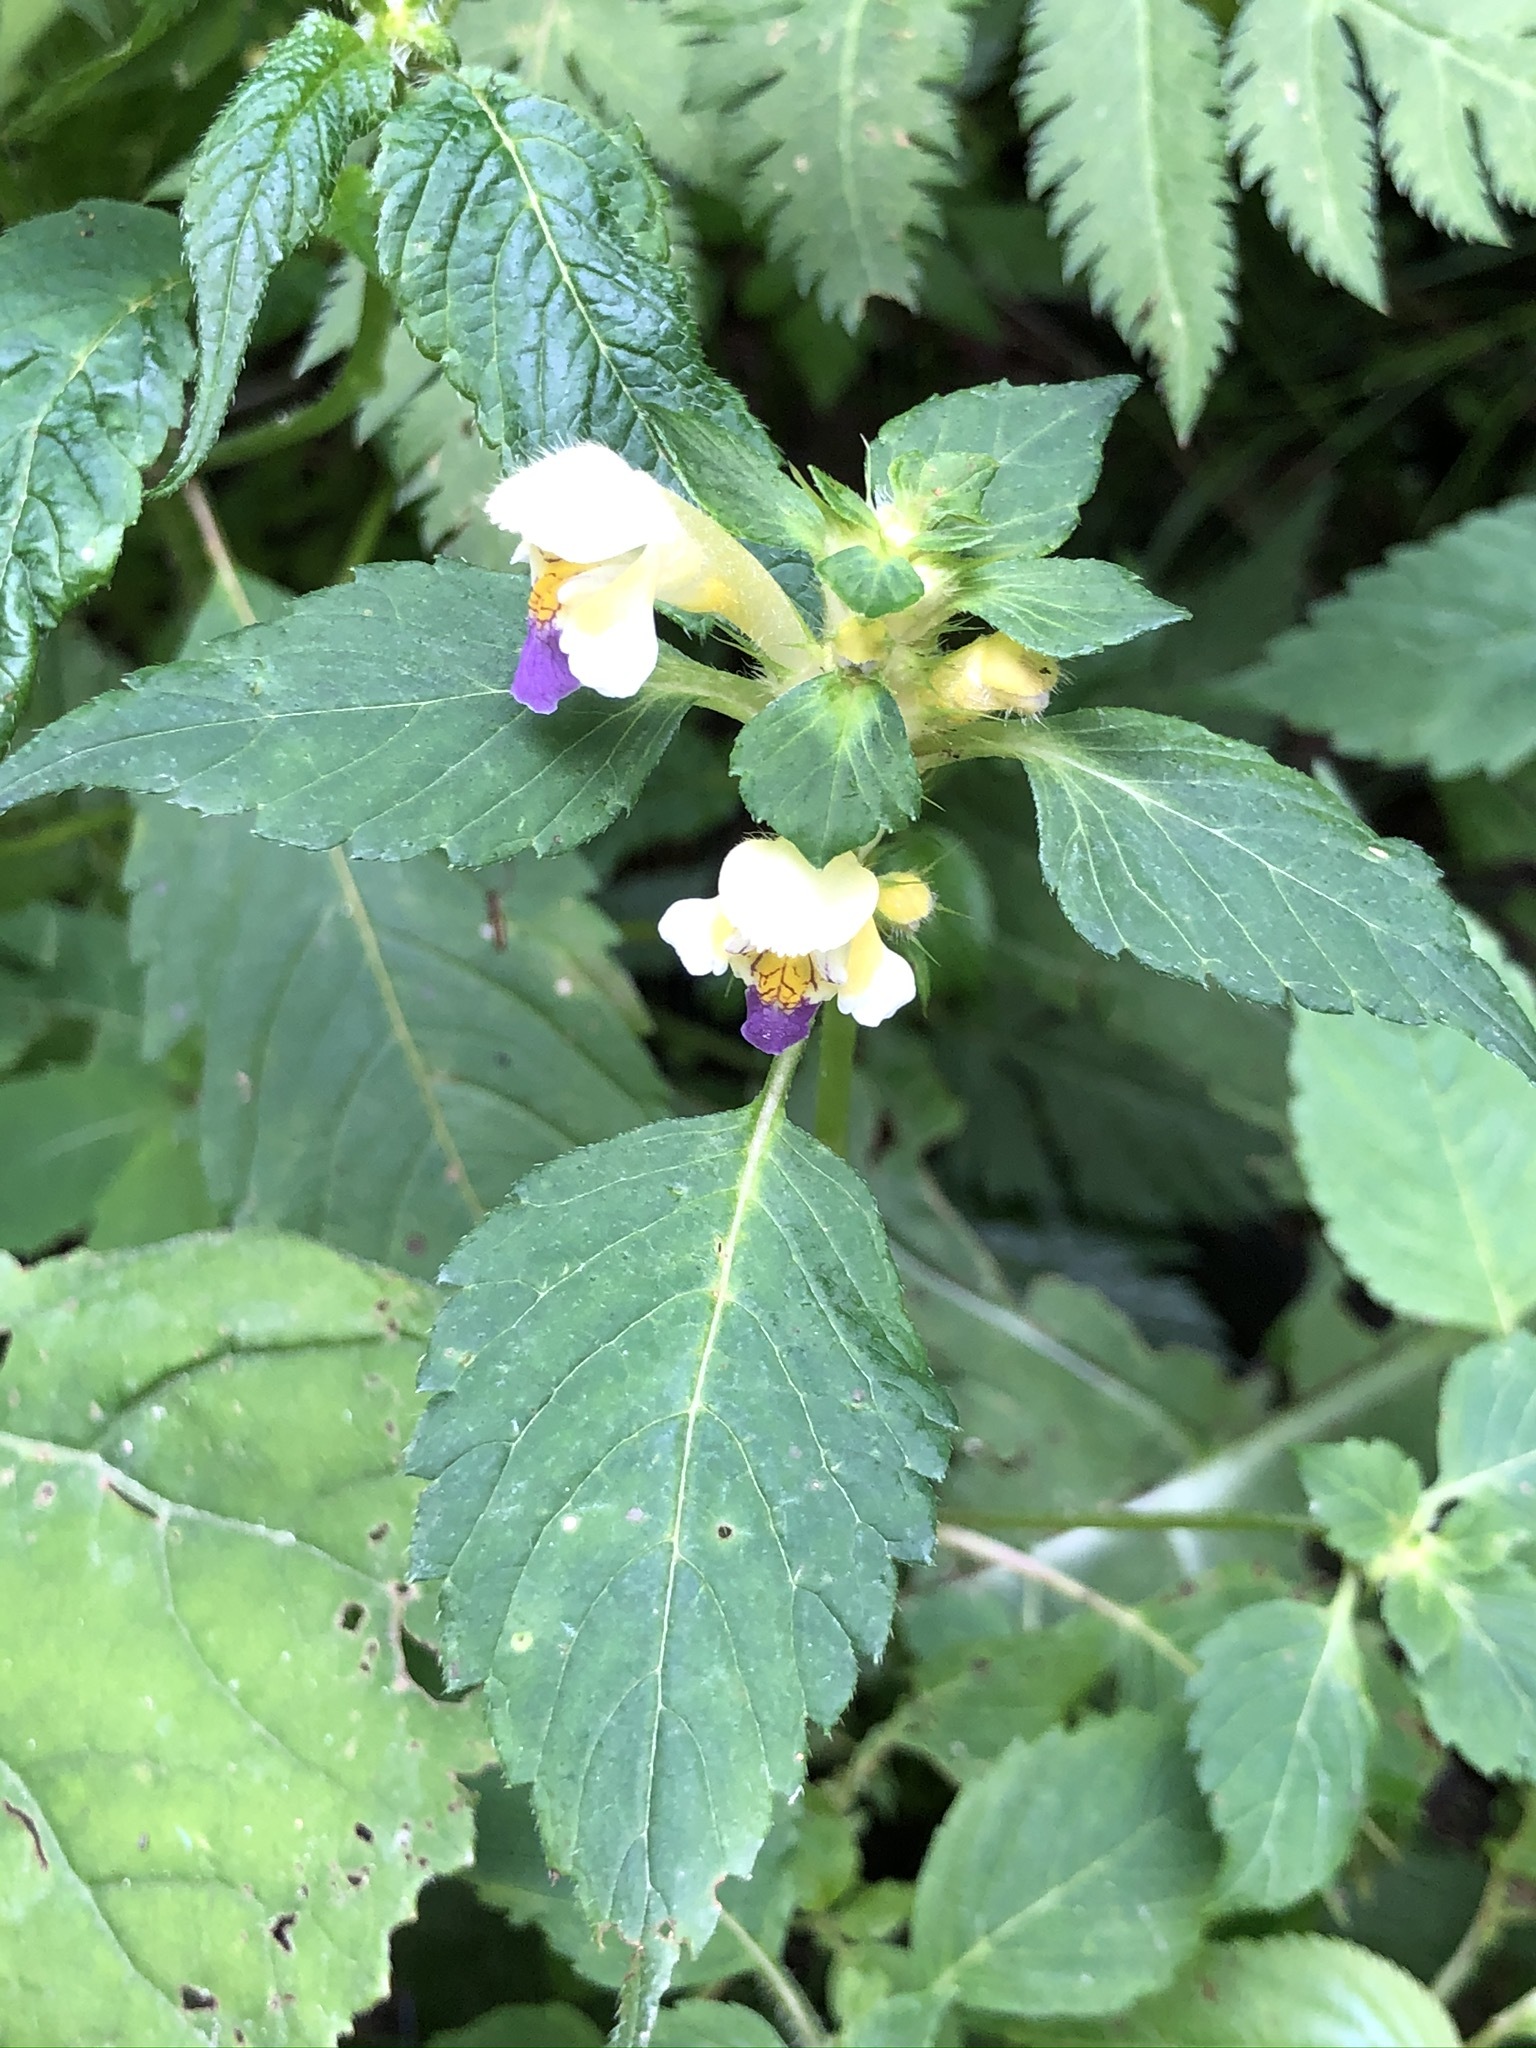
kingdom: Plantae
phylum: Tracheophyta
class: Magnoliopsida
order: Lamiales
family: Lamiaceae
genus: Galeopsis
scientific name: Galeopsis speciosa
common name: Large-flowered hemp-nettle
